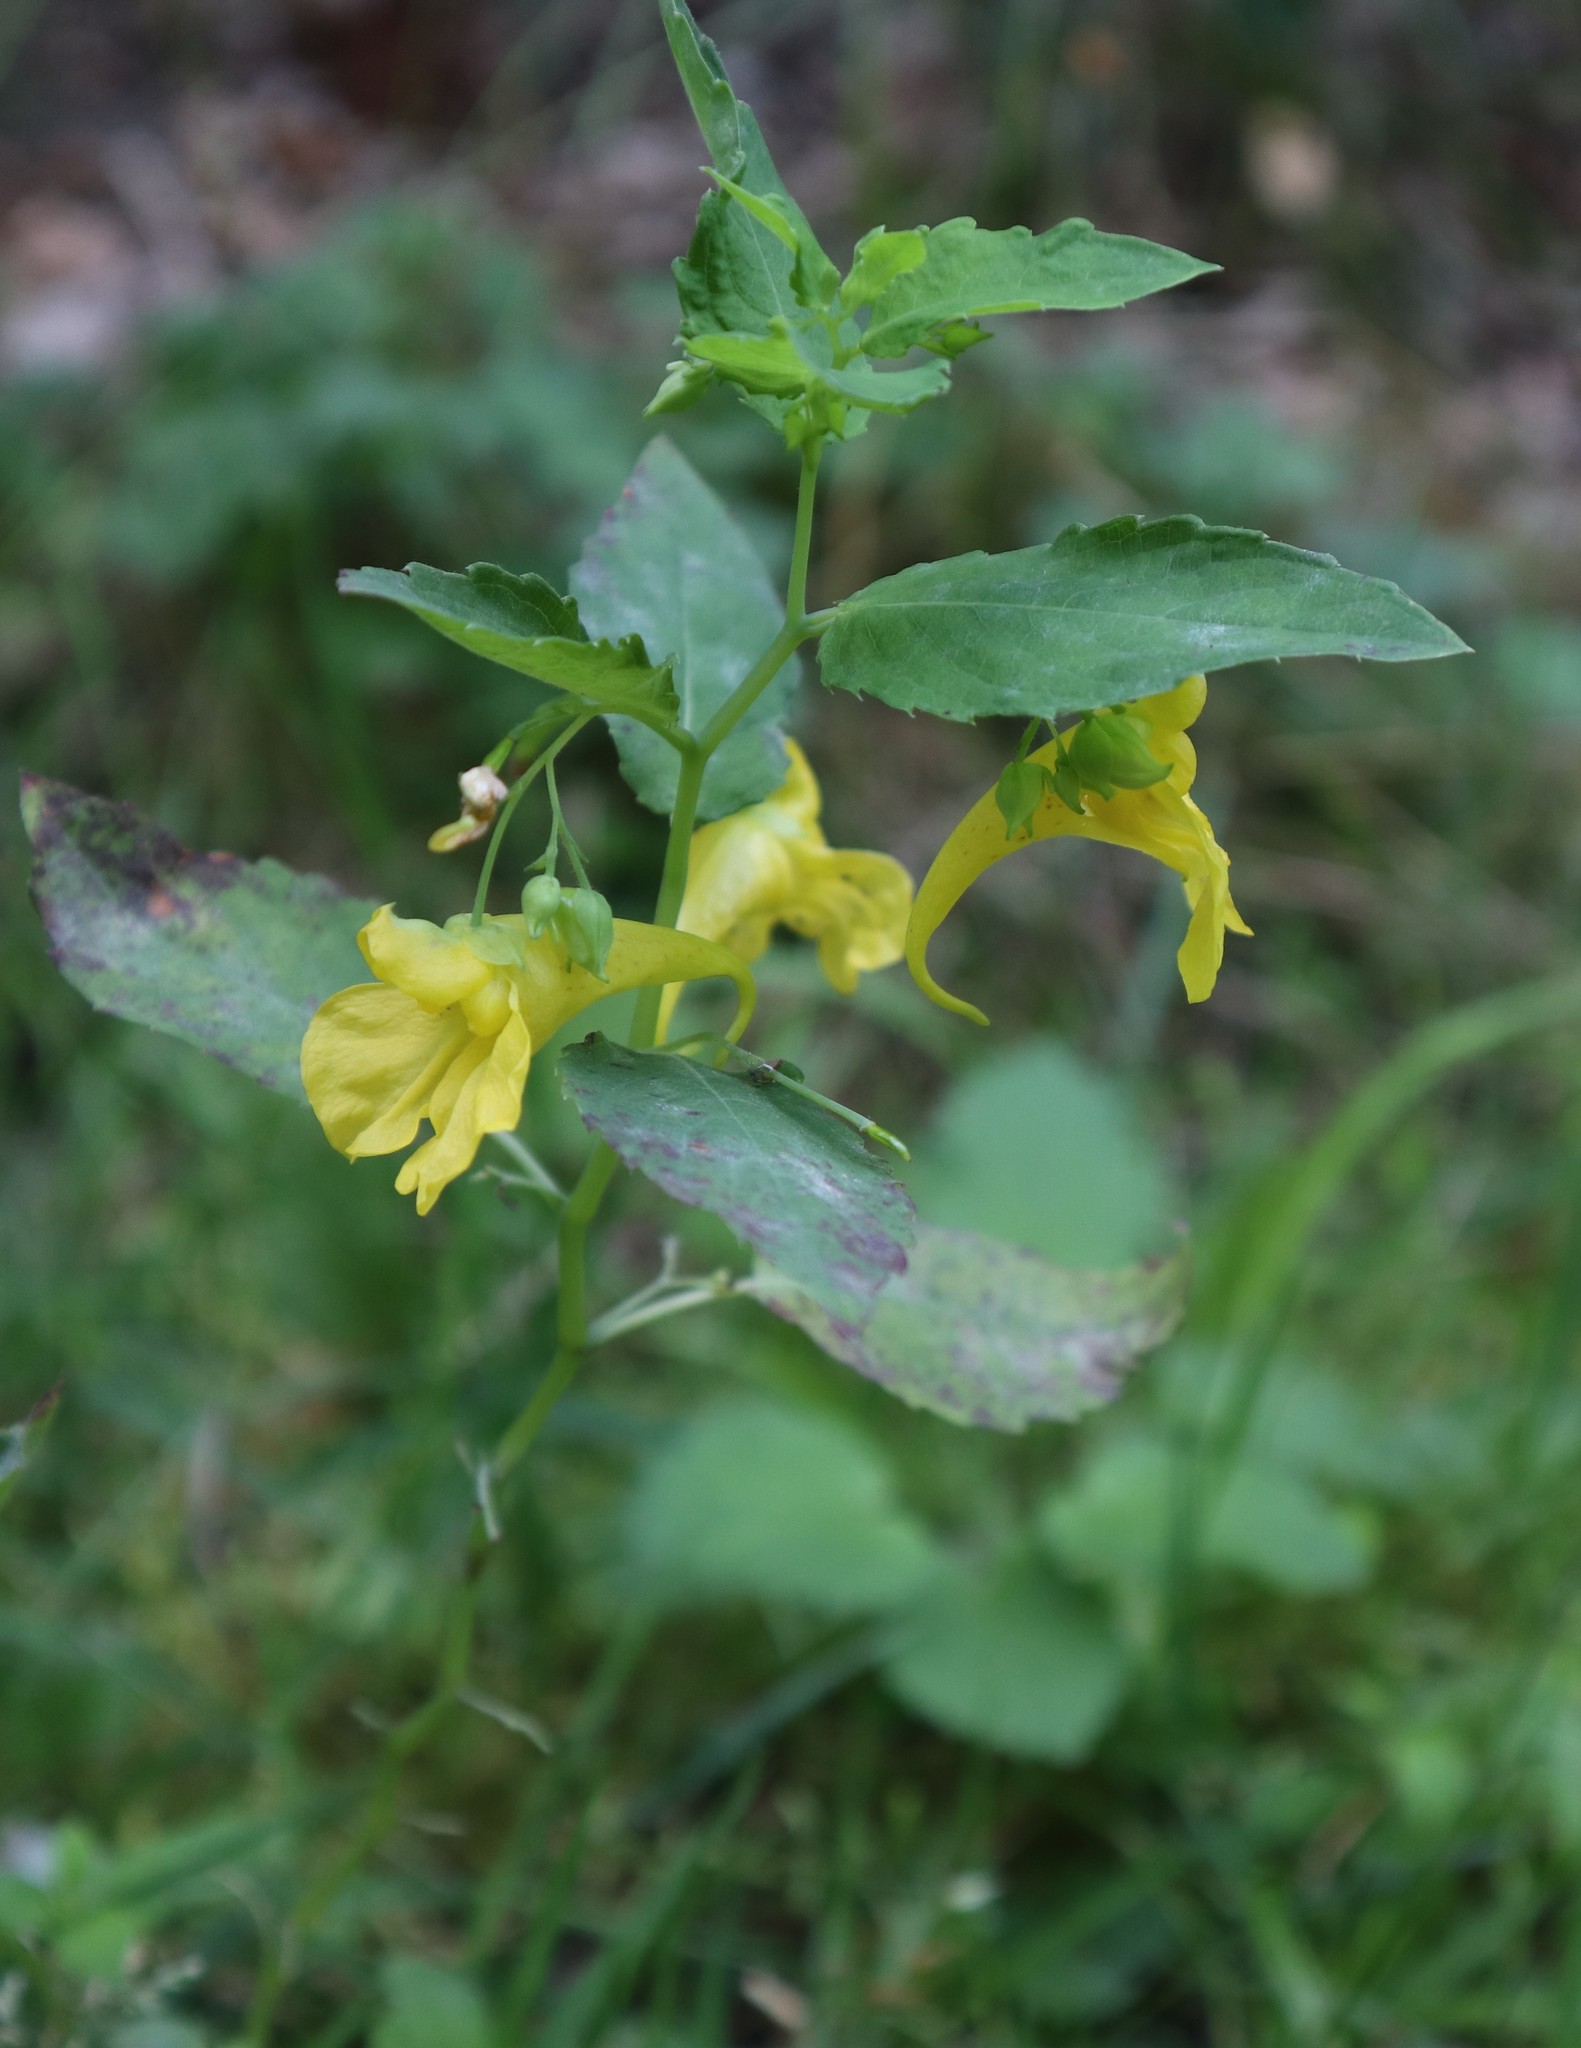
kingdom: Plantae
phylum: Tracheophyta
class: Magnoliopsida
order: Ericales
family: Balsaminaceae
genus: Impatiens
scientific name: Impatiens noli-tangere
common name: Touch-me-not balsam
